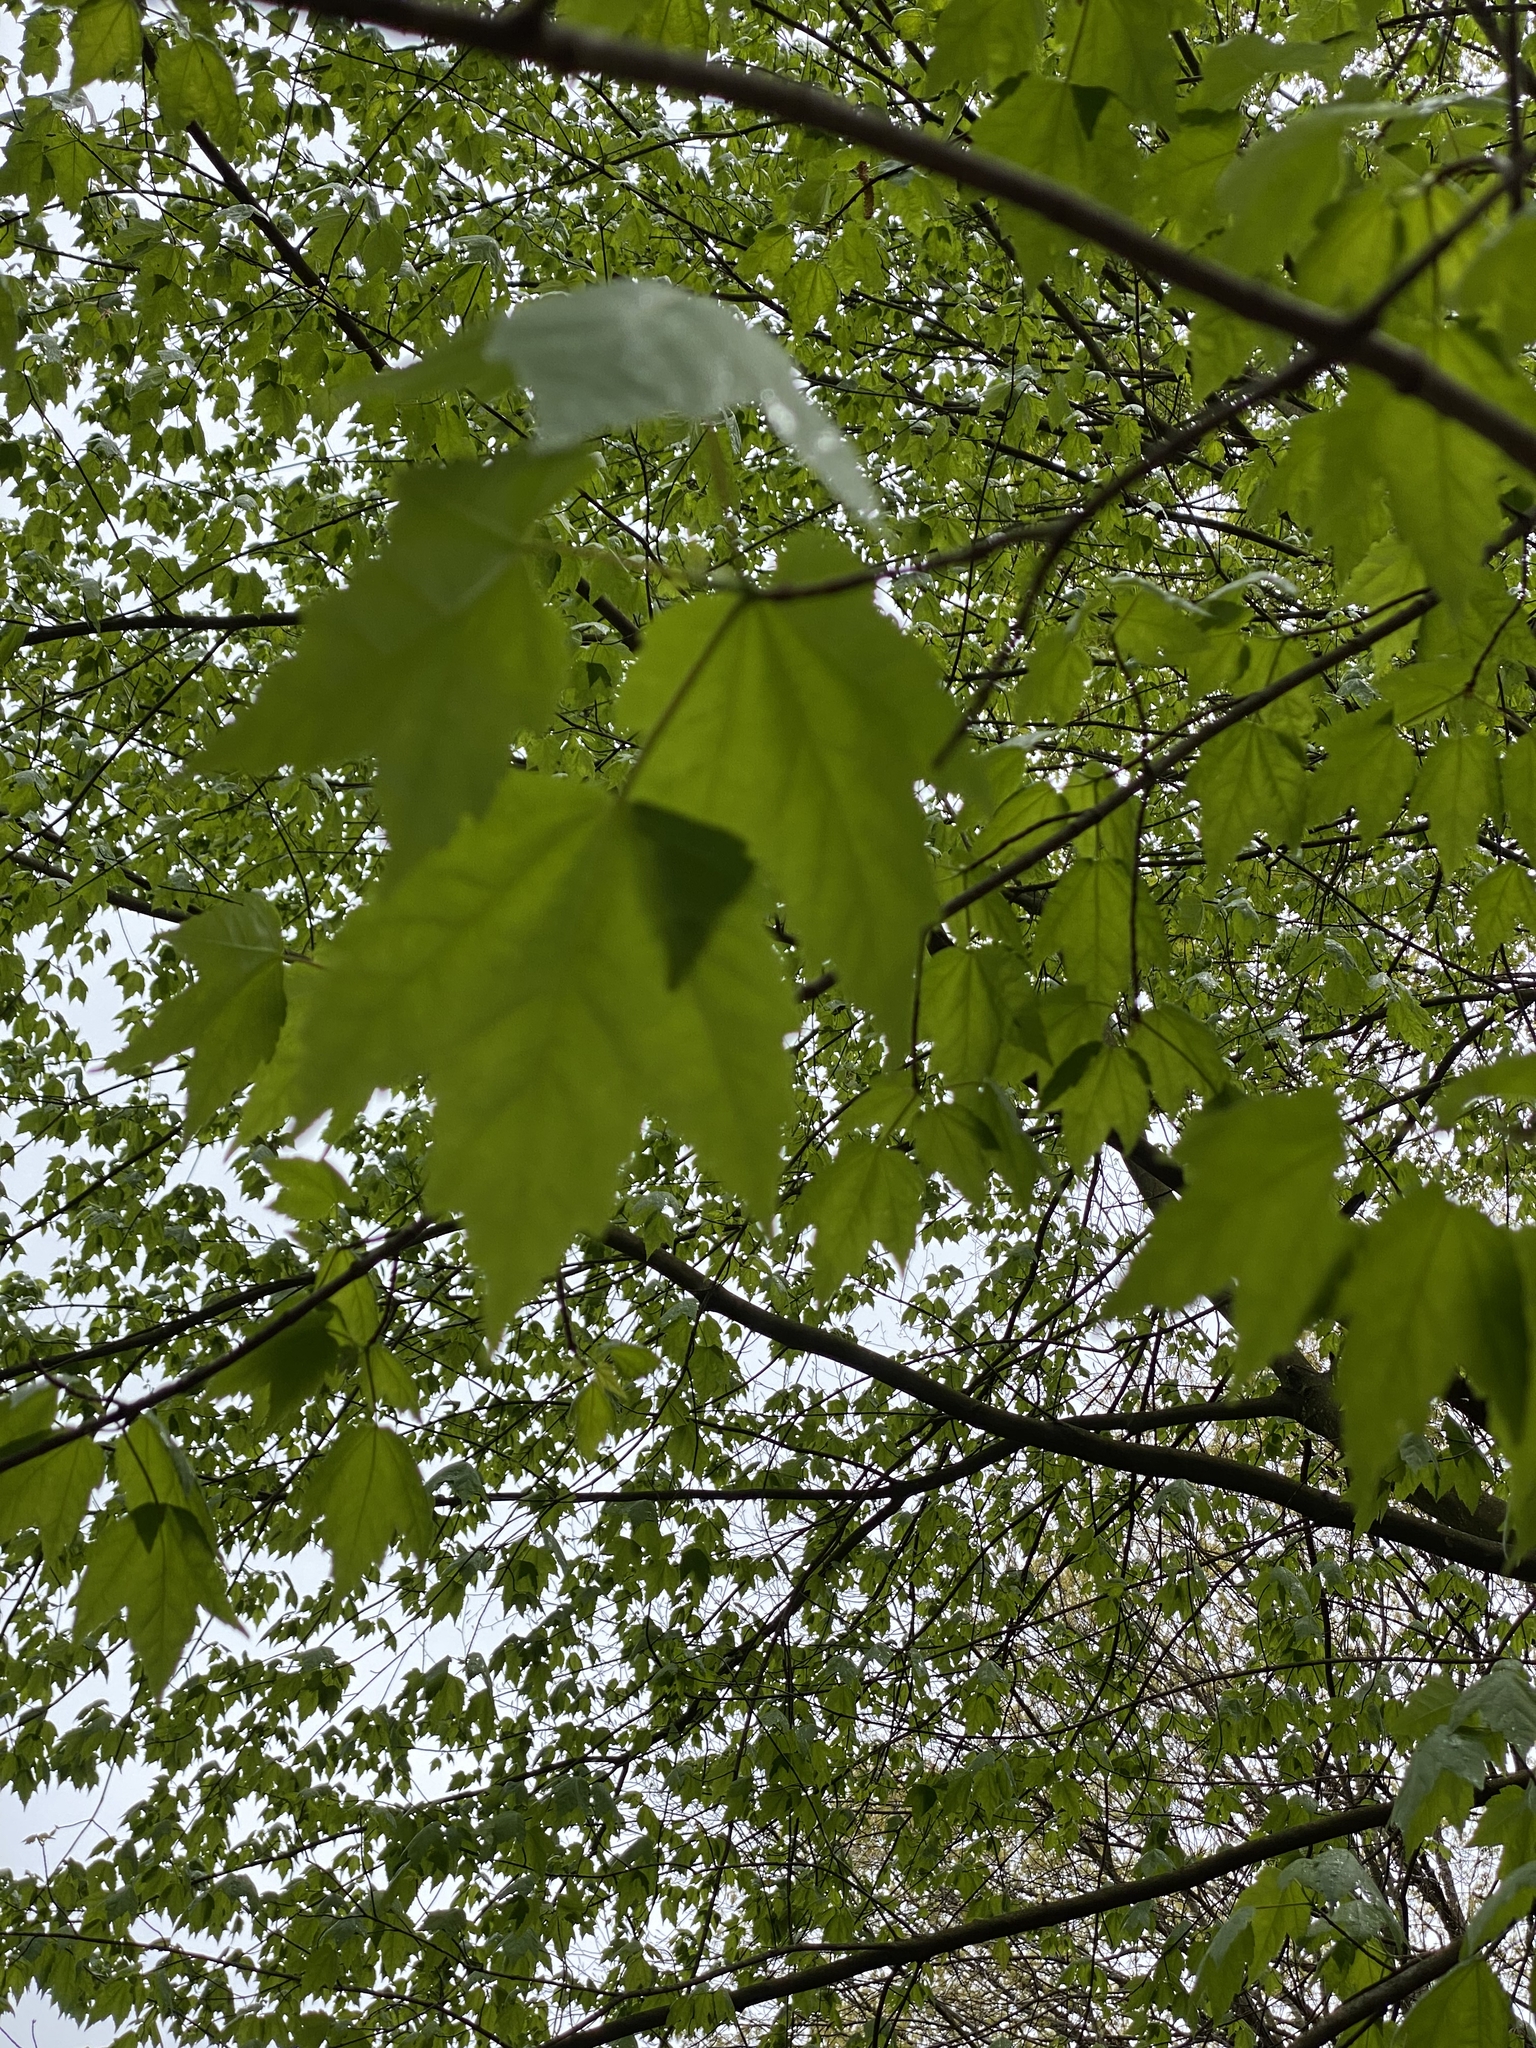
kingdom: Plantae
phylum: Tracheophyta
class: Magnoliopsida
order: Sapindales
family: Sapindaceae
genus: Acer
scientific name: Acer rubrum
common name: Red maple
